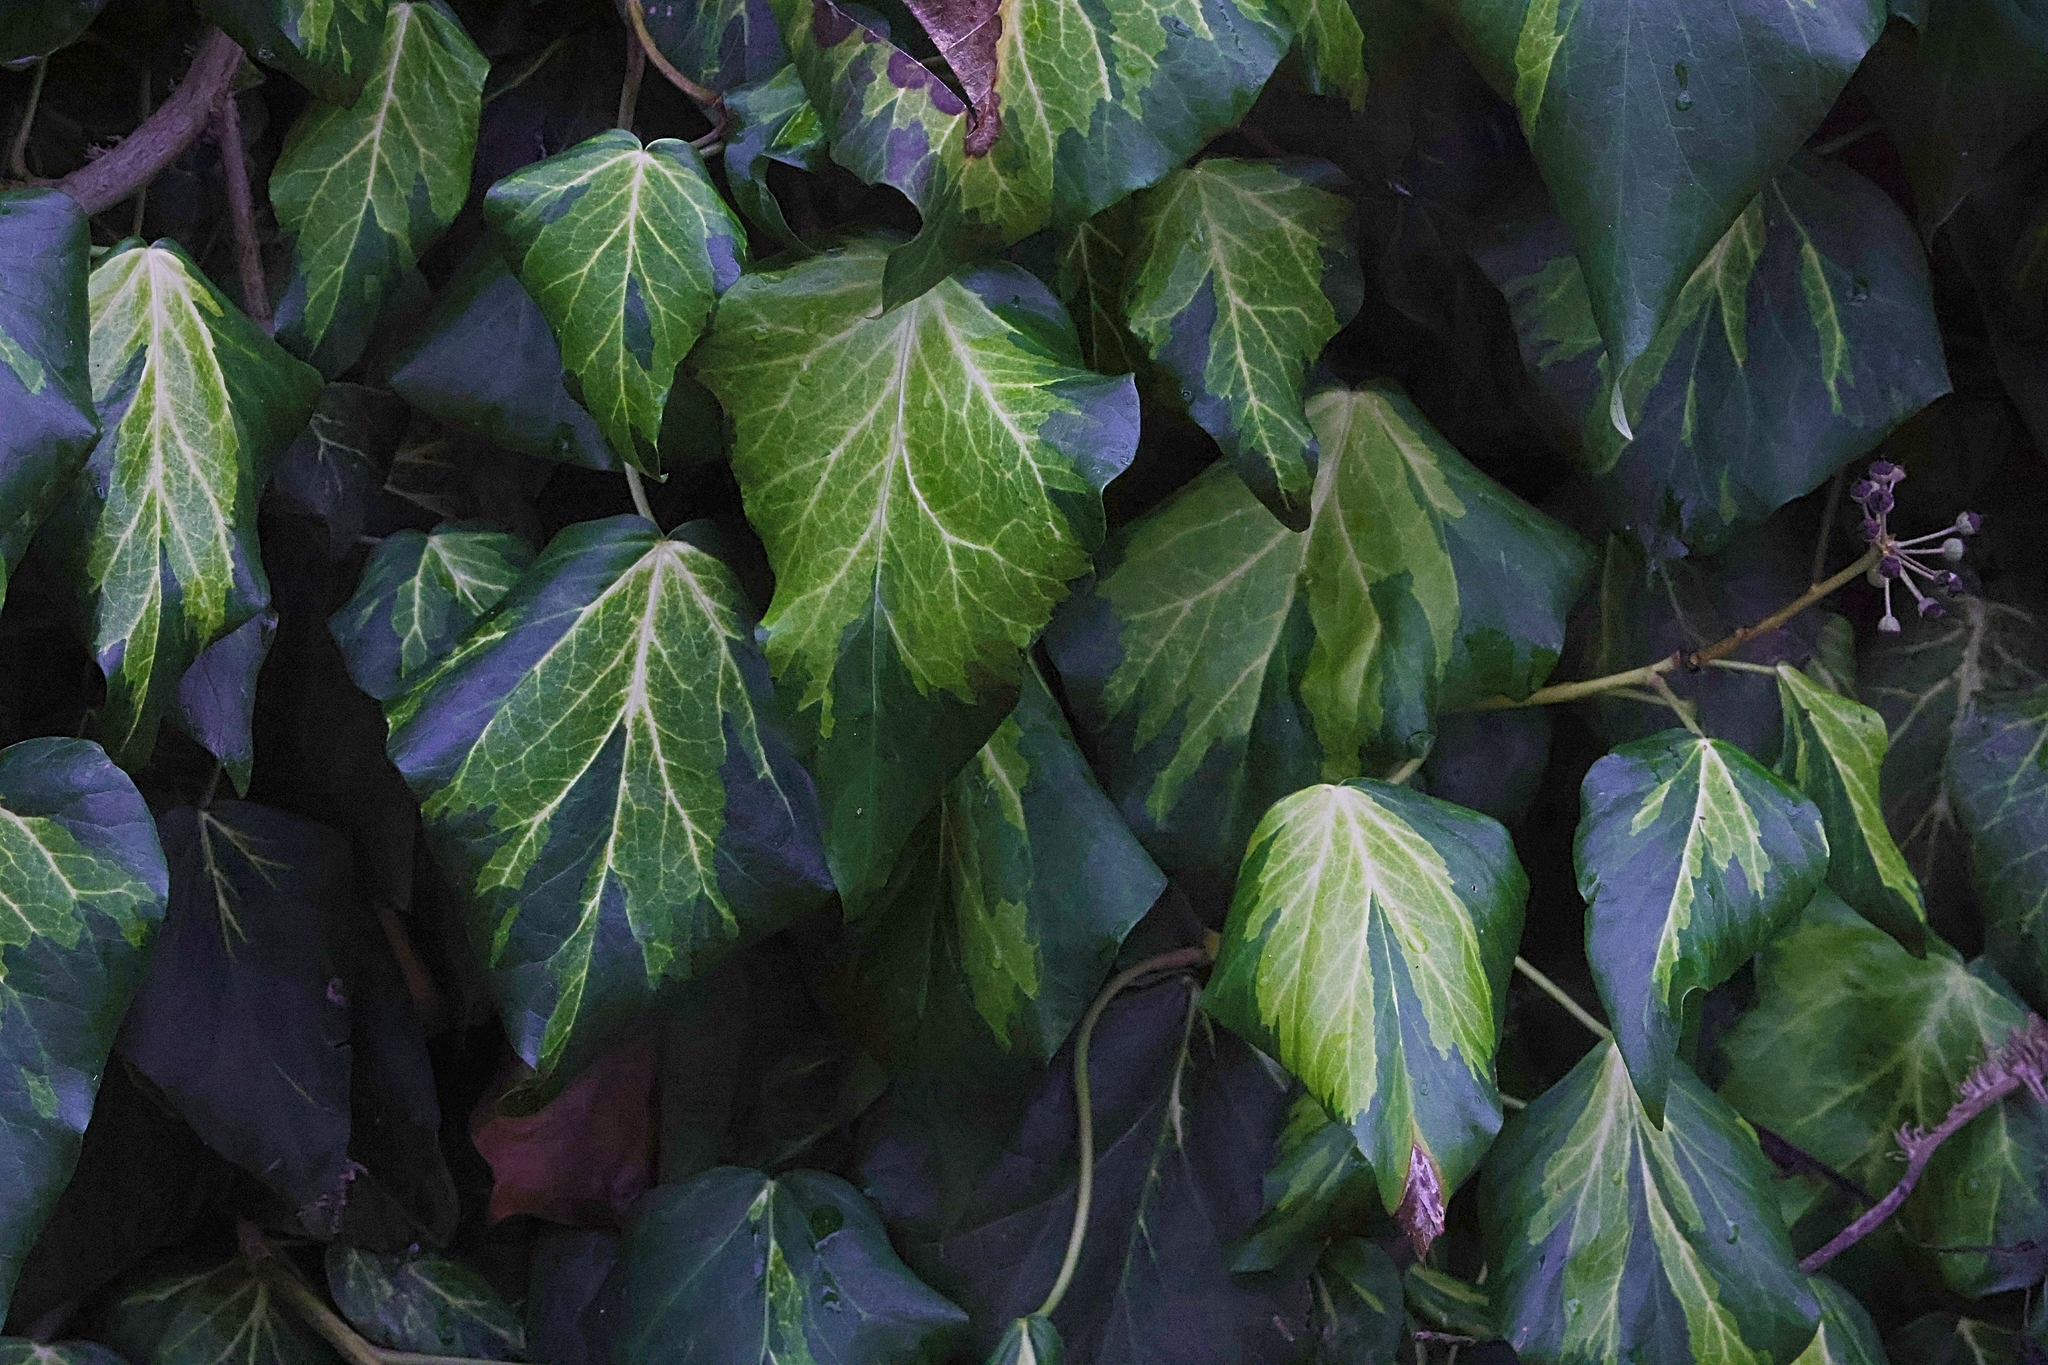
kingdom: Plantae
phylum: Tracheophyta
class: Magnoliopsida
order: Apiales
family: Araliaceae
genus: Hedera
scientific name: Hedera colchica
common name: Persian ivy
